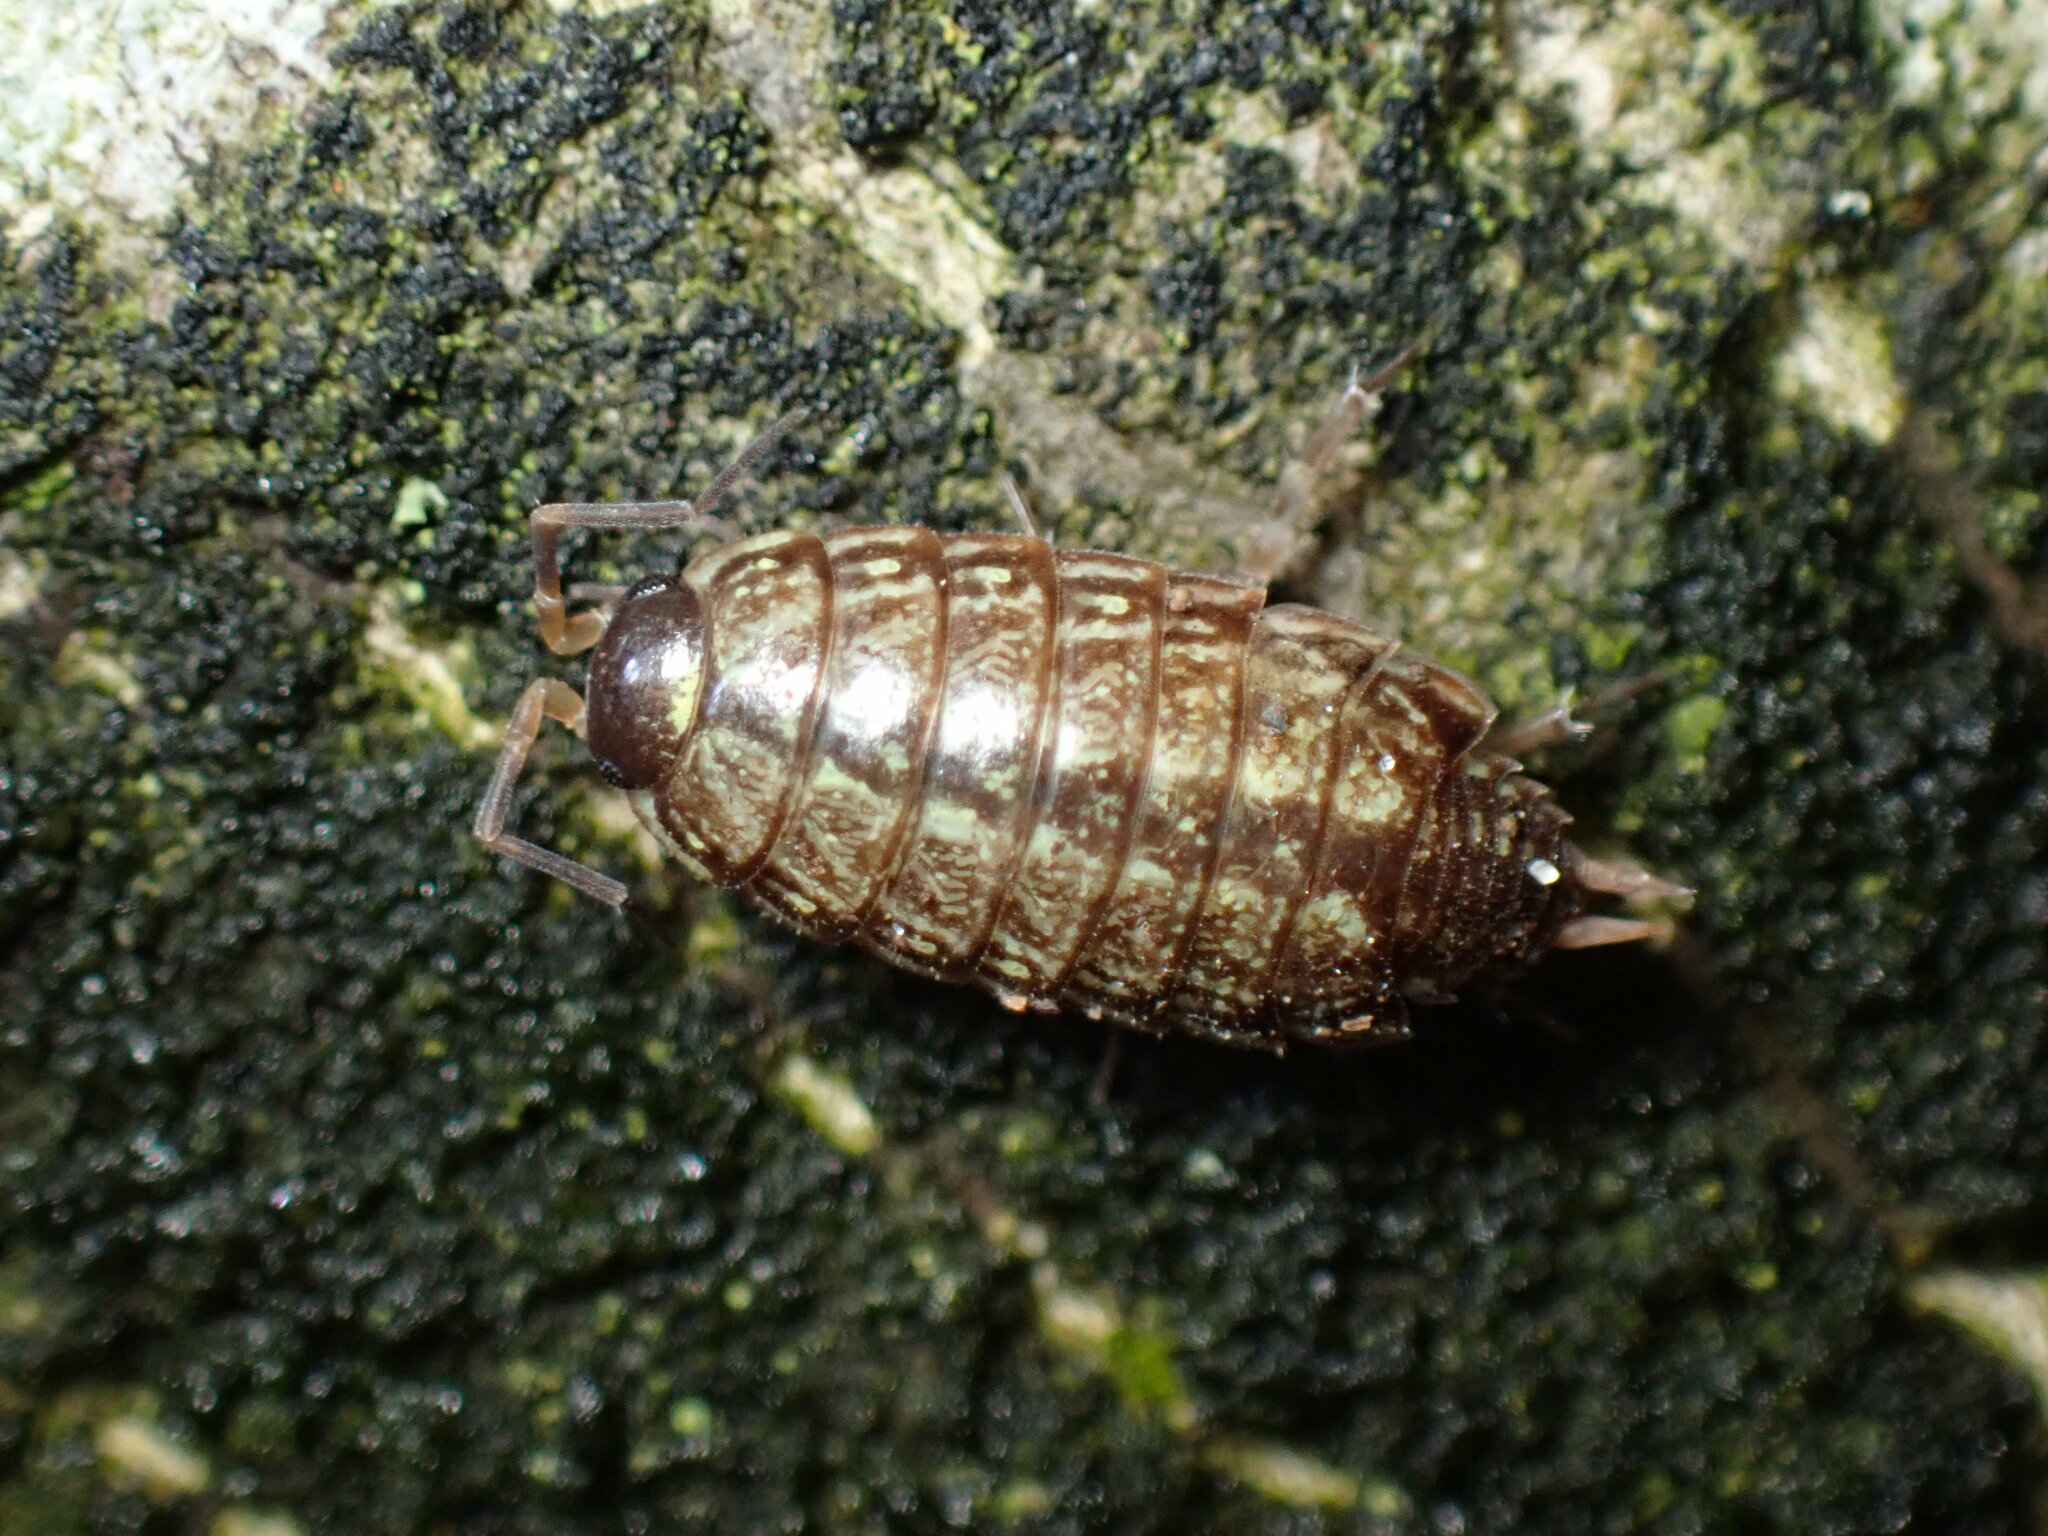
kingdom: Animalia
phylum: Arthropoda
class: Malacostraca
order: Isopoda
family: Philosciidae
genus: Philoscia
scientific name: Philoscia muscorum
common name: Common striped woodlouse
